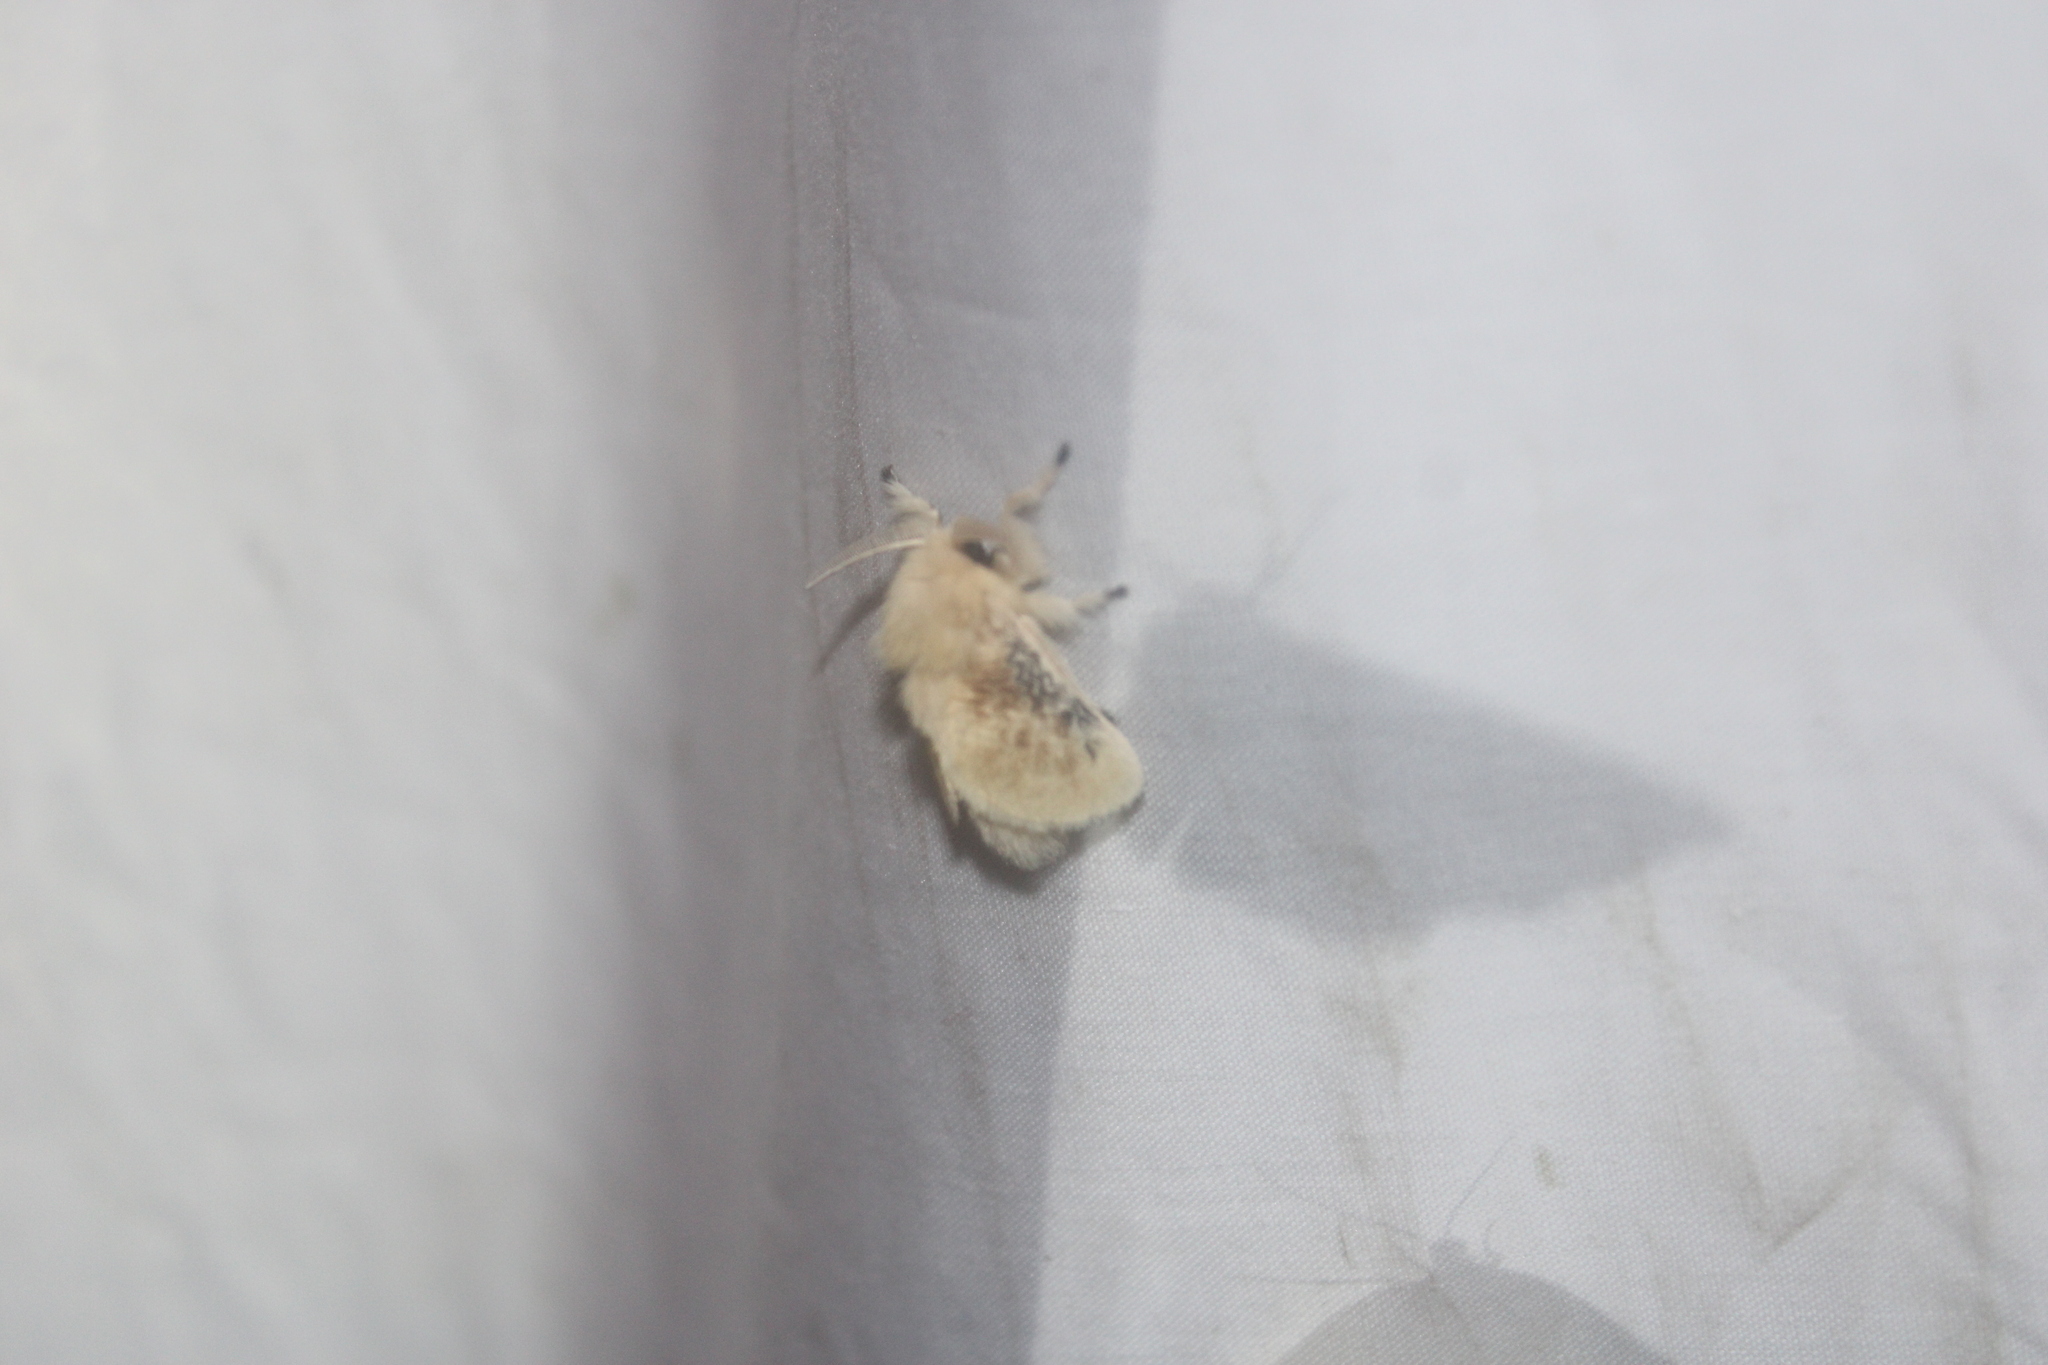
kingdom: Animalia
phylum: Arthropoda
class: Insecta
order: Lepidoptera
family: Megalopygidae
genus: Megalopyge
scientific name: Megalopyge crispata
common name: Black-waved flannel moth
